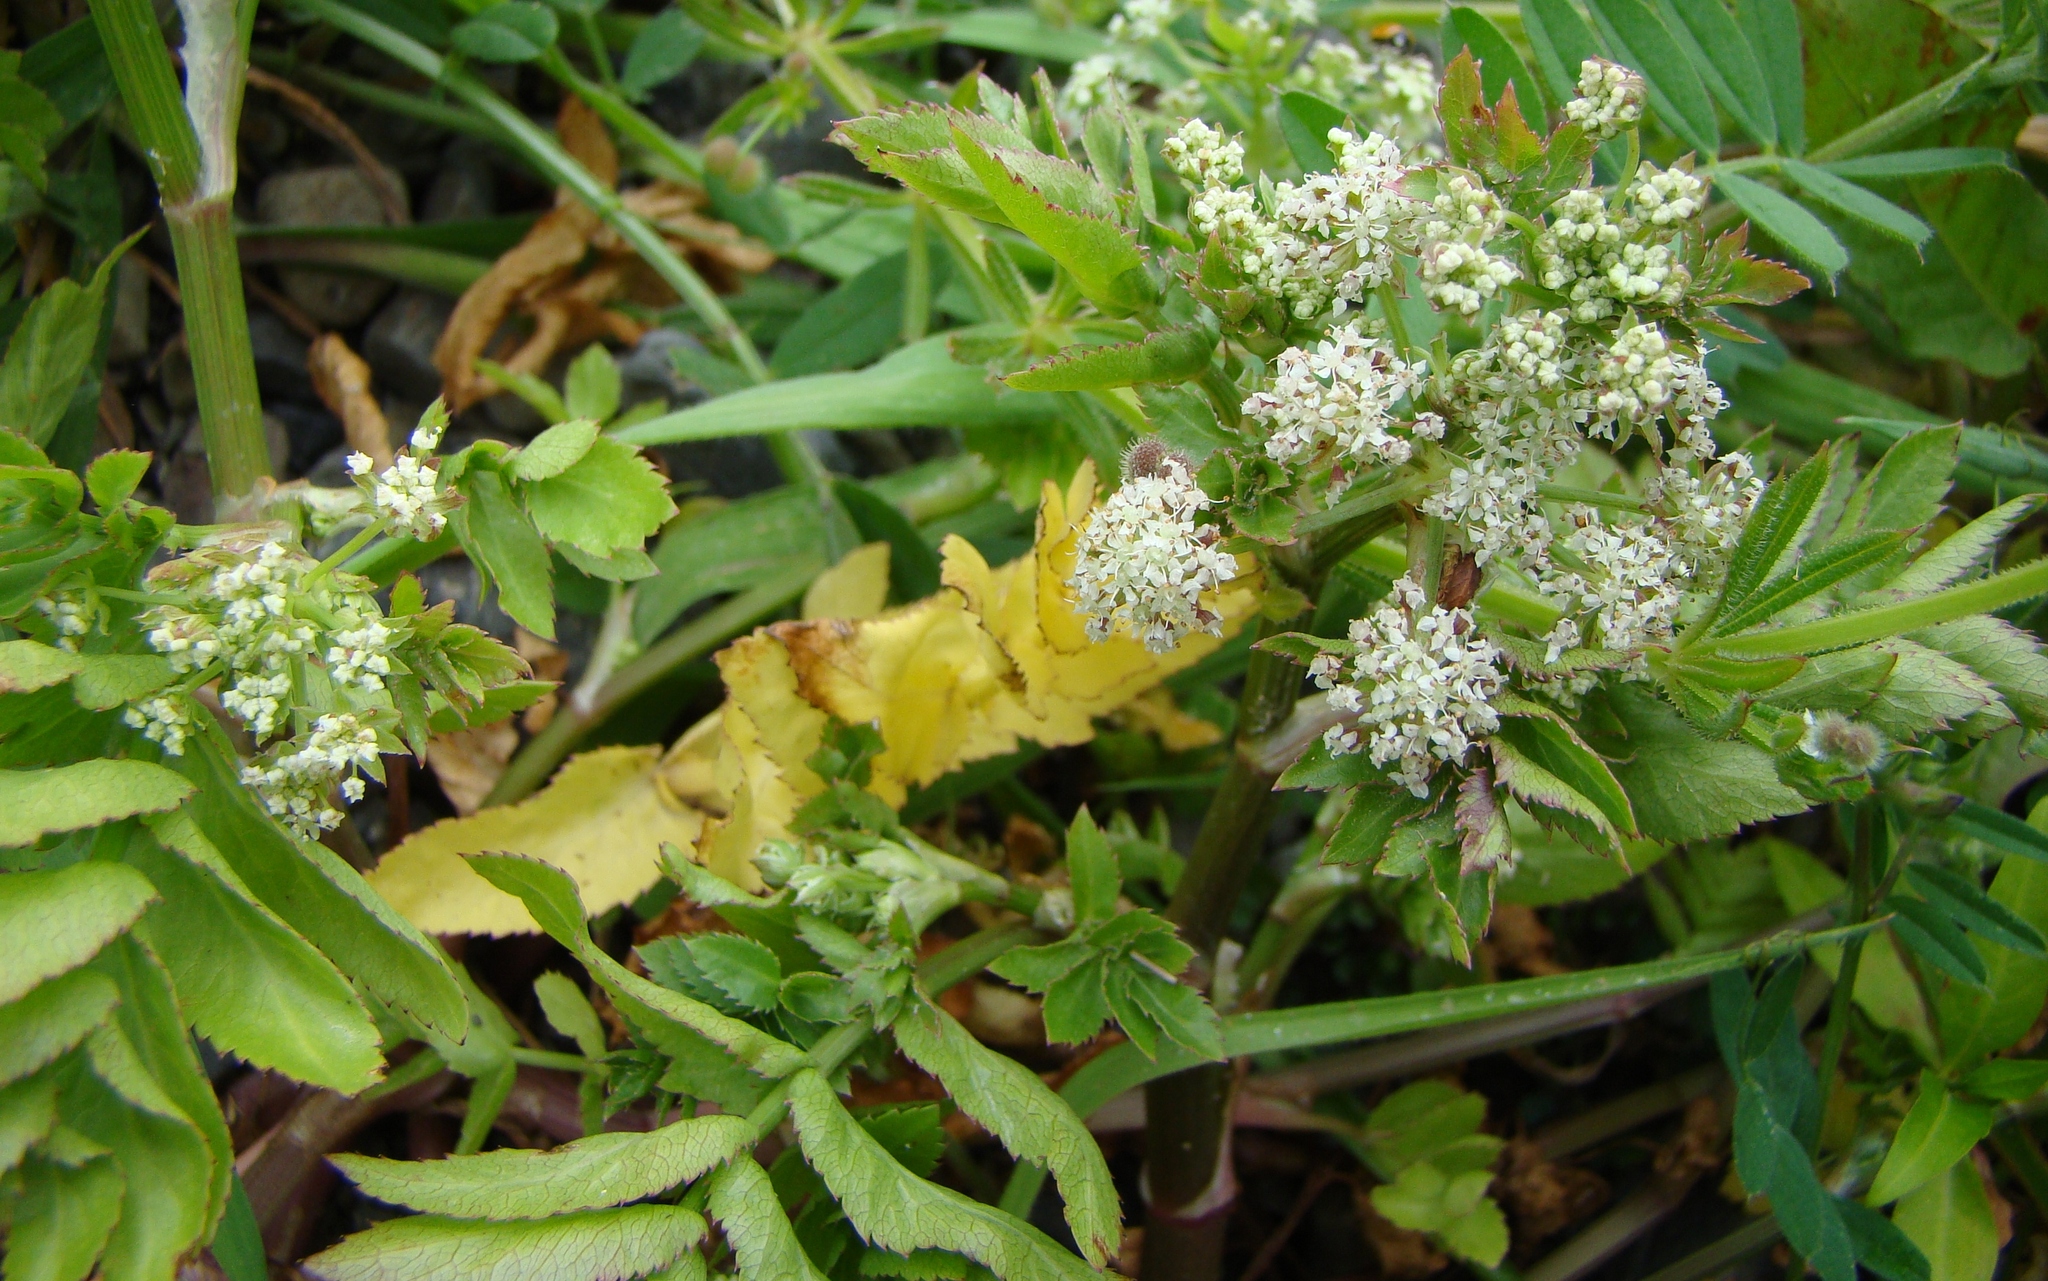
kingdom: Plantae
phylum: Tracheophyta
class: Magnoliopsida
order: Apiales
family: Apiaceae
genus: Helosciadium
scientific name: Helosciadium nodiflorum
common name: Fool's-watercress
